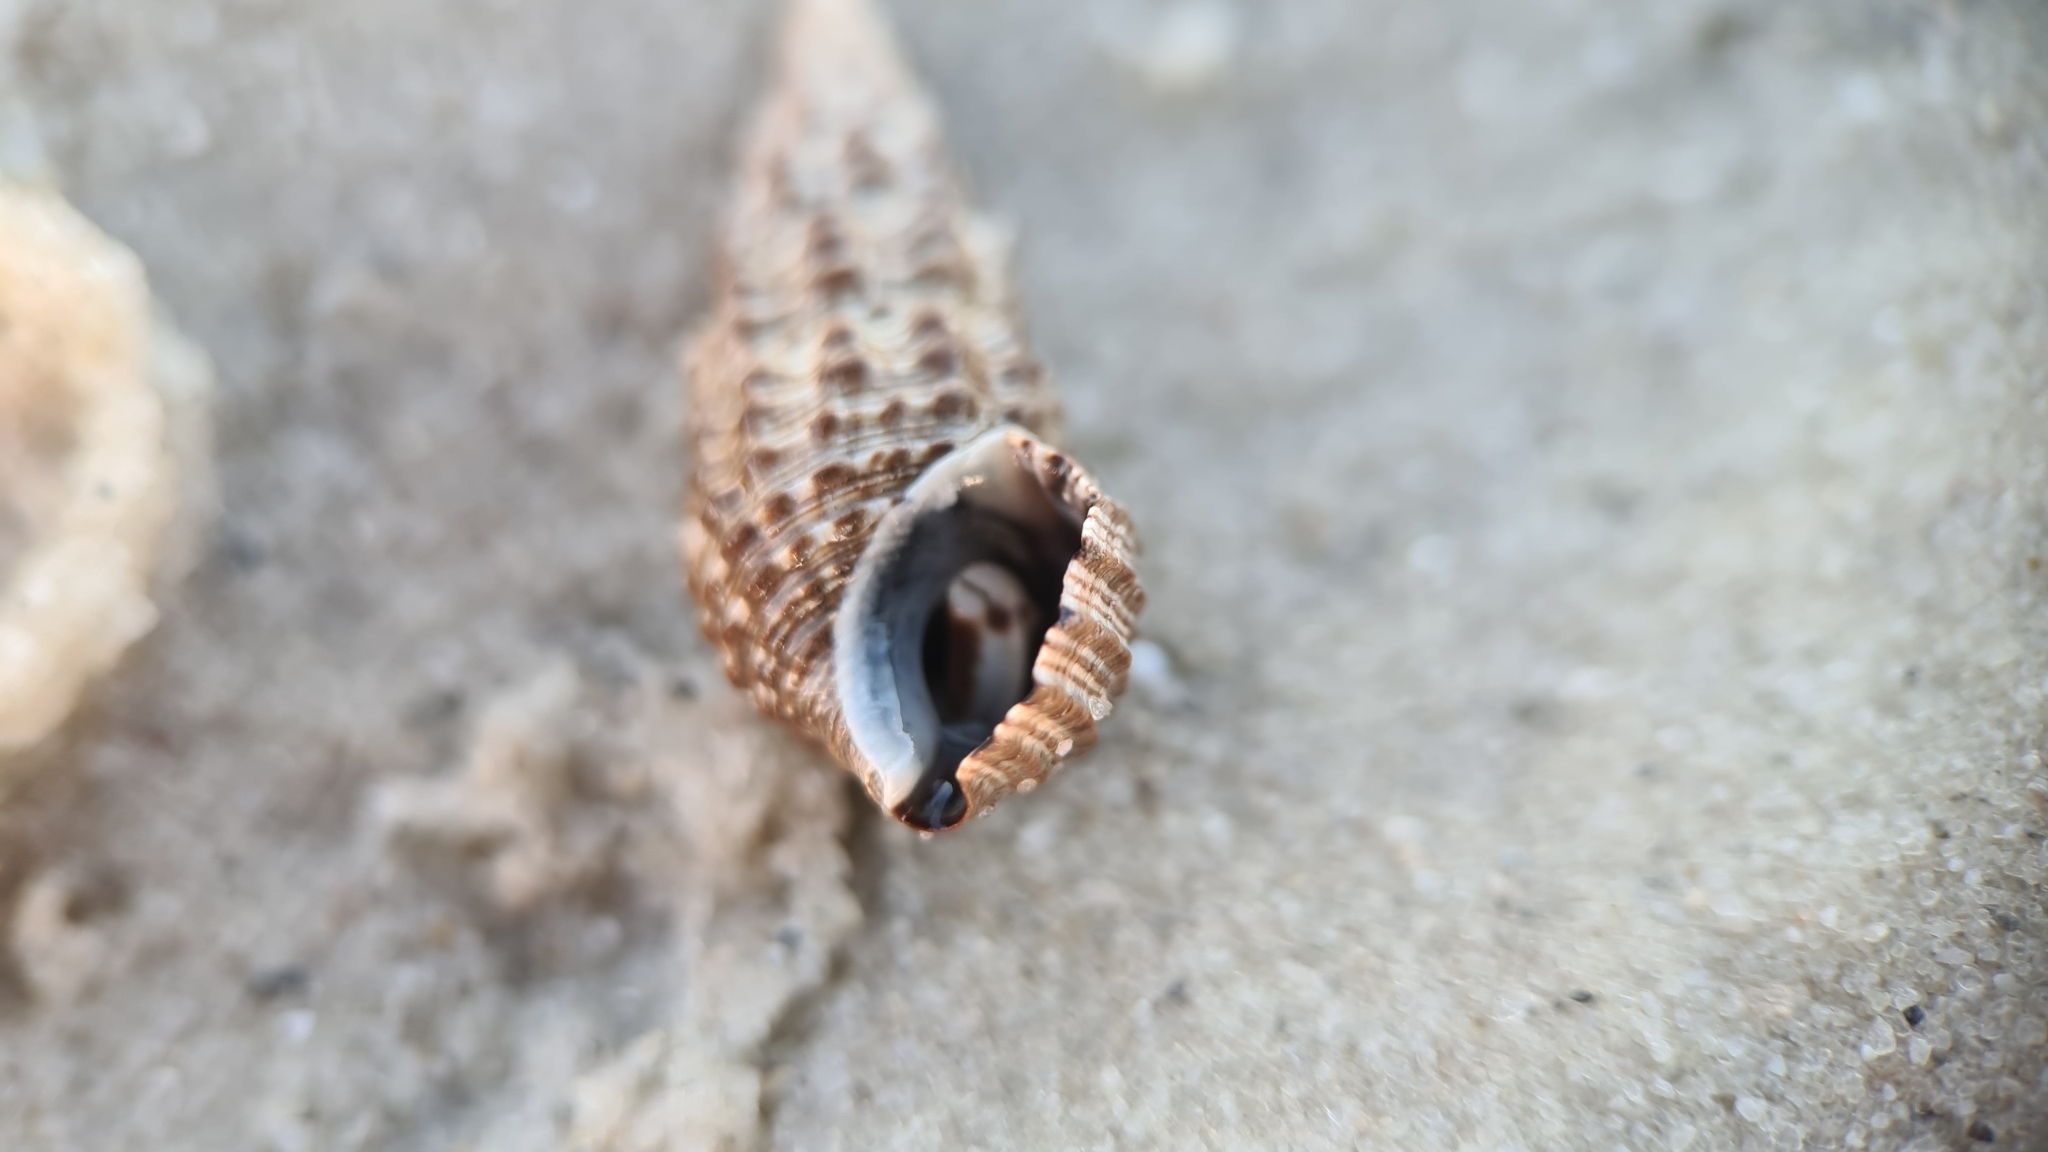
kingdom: Animalia
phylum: Mollusca
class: Gastropoda
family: Batillariidae
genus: Batillaria
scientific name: Batillaria australis
